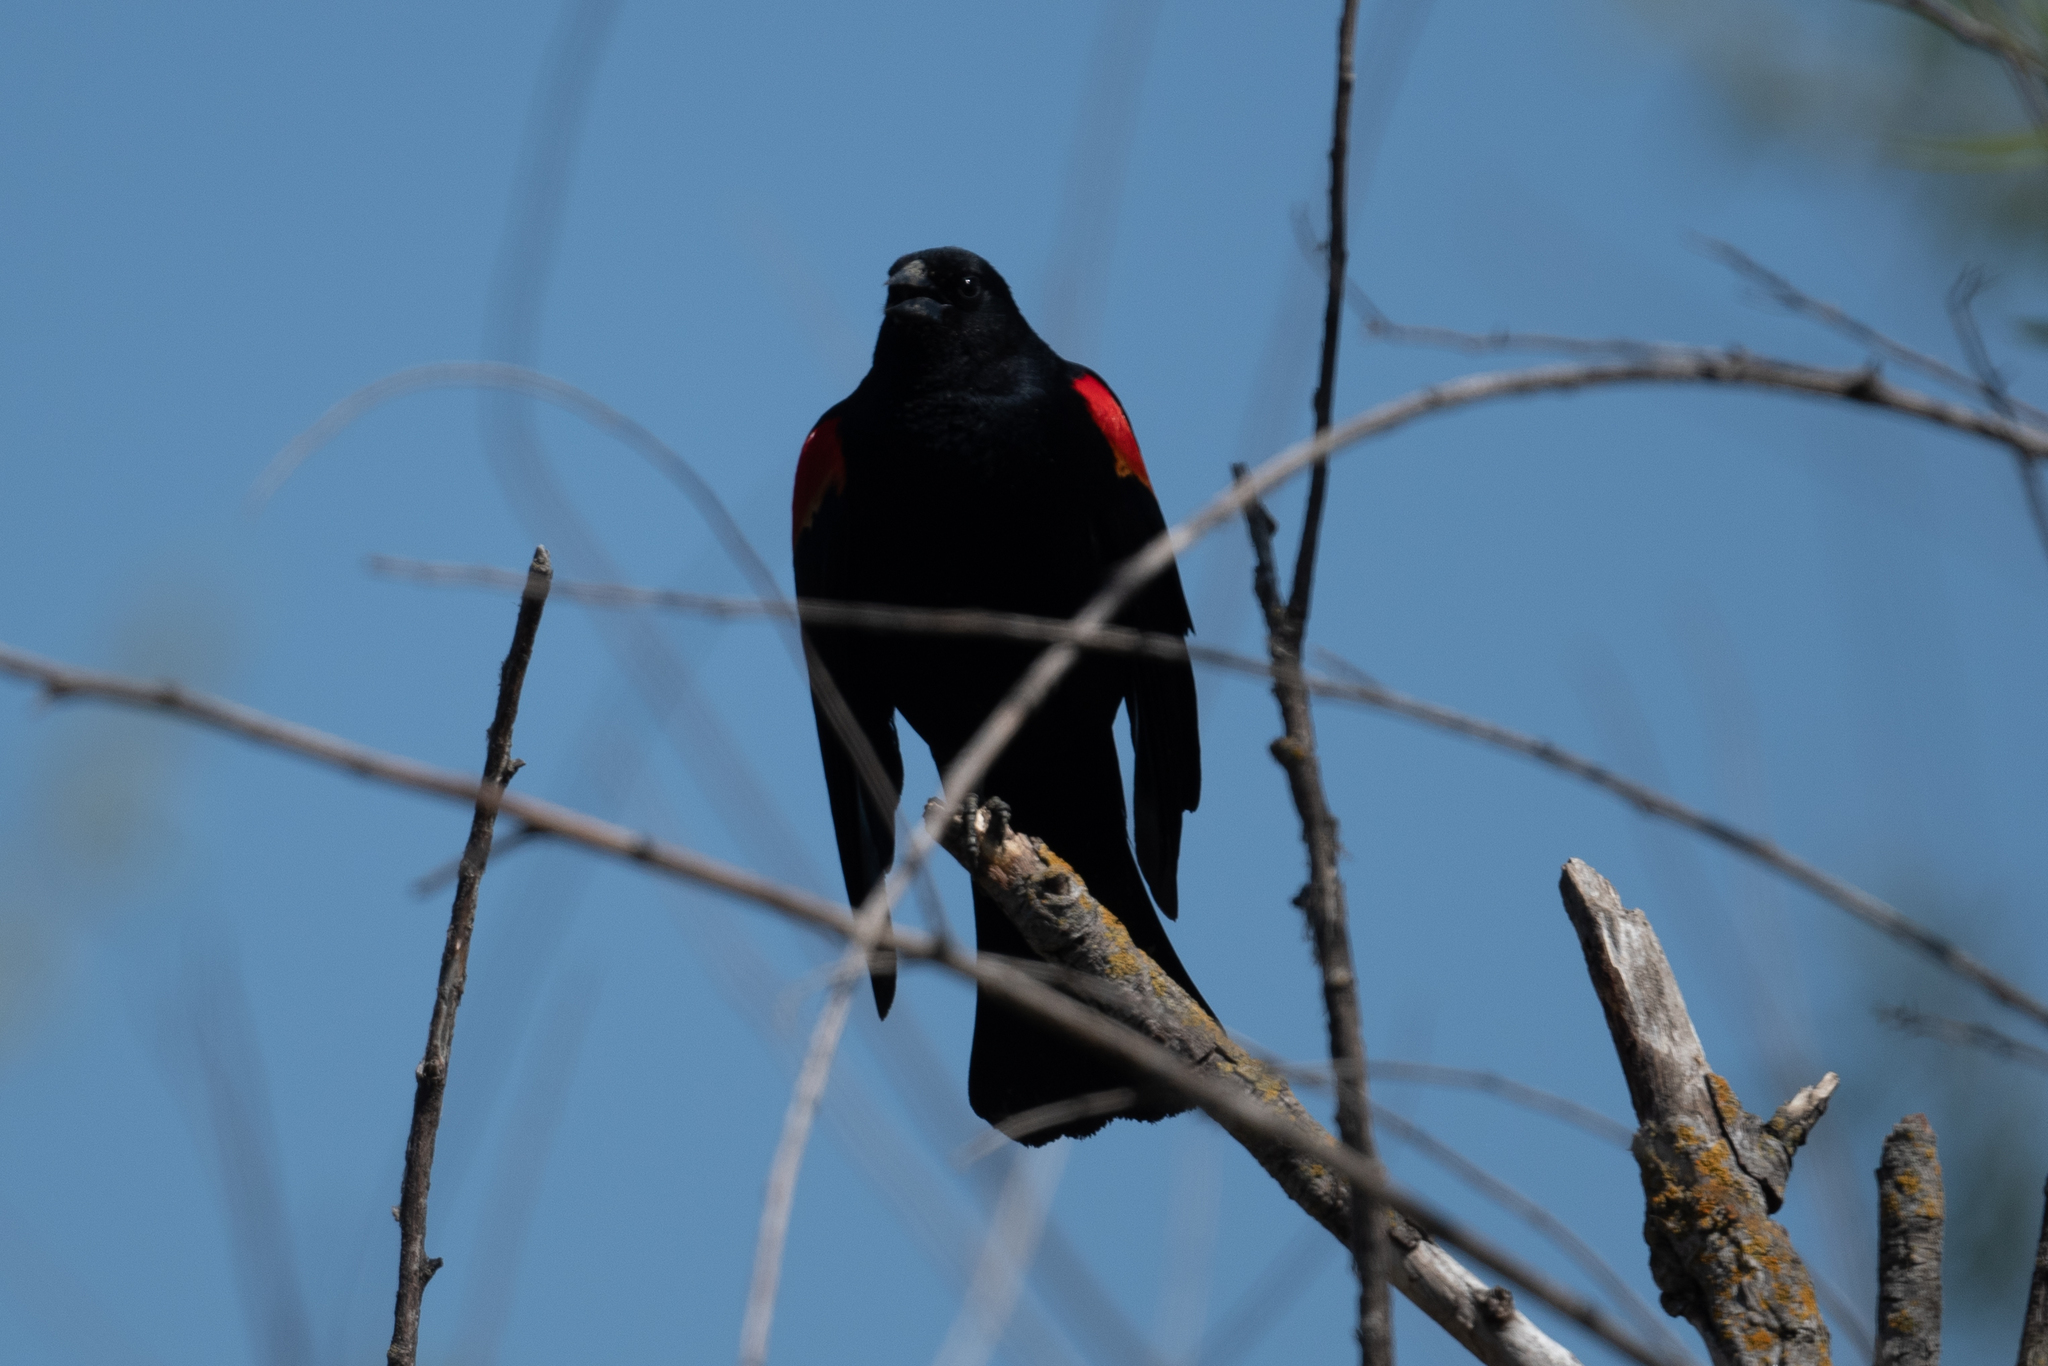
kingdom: Animalia
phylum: Chordata
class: Aves
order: Passeriformes
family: Icteridae
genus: Agelaius
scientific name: Agelaius phoeniceus
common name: Red-winged blackbird
